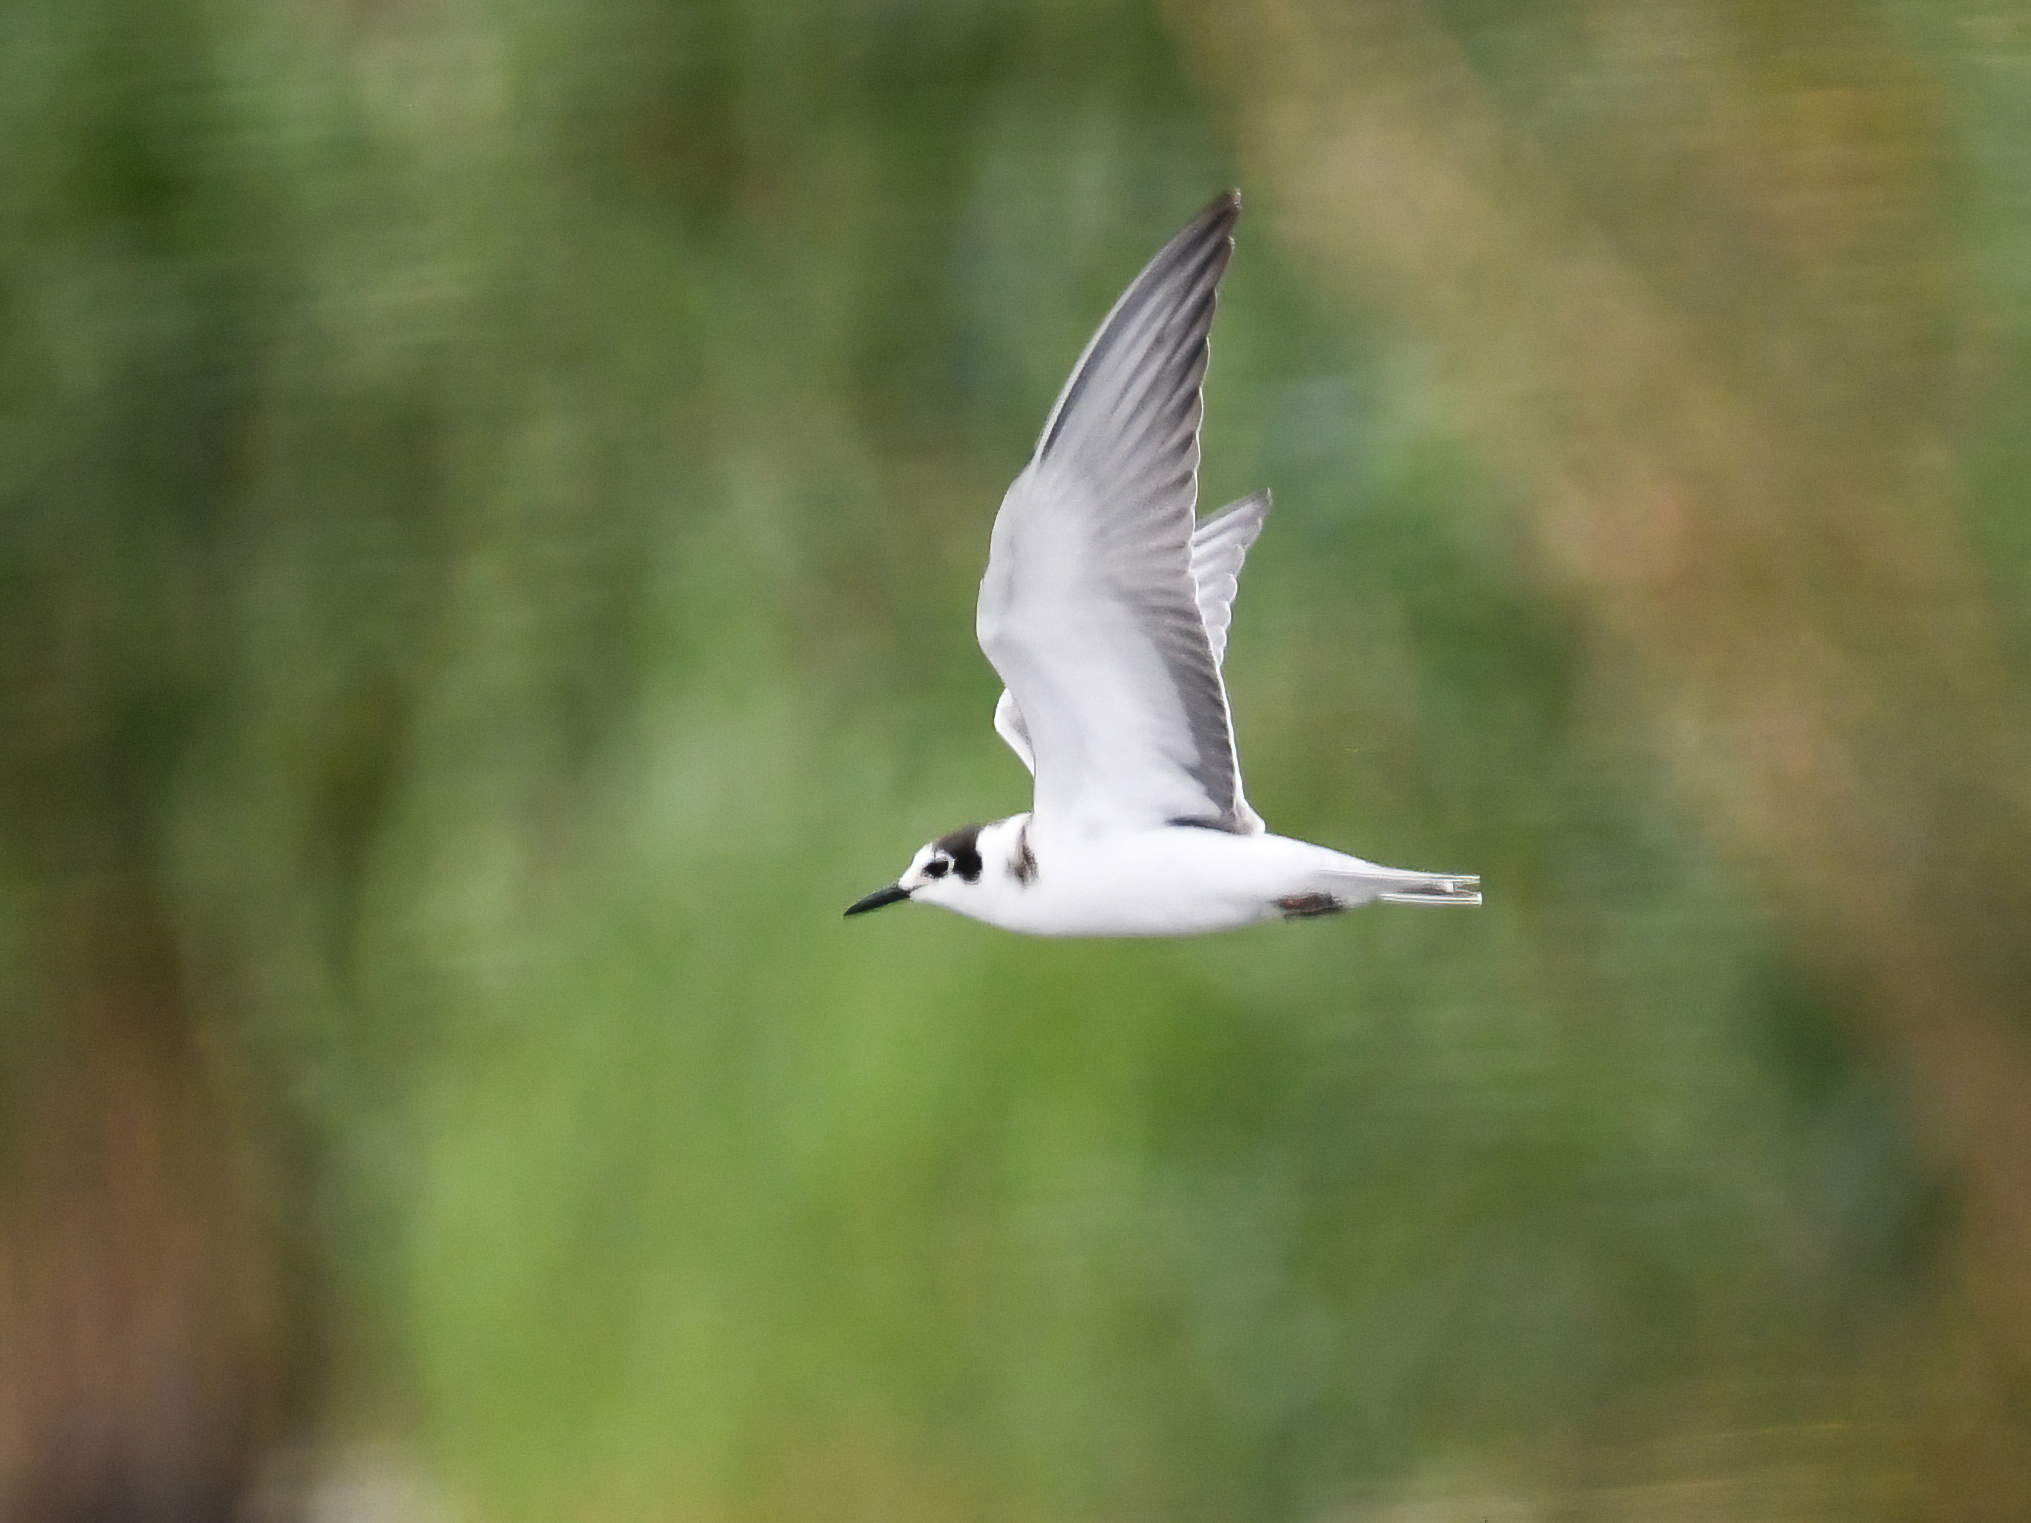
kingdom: Animalia
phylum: Chordata
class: Aves
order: Charadriiformes
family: Laridae
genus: Chlidonias
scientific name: Chlidonias niger
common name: Black tern
